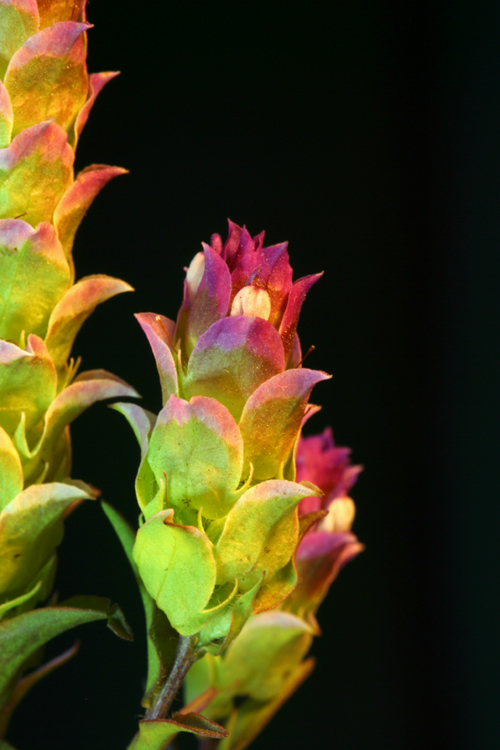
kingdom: Plantae
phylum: Tracheophyta
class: Magnoliopsida
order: Lamiales
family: Orobanchaceae
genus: Orthocarpus
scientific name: Orthocarpus cuspidatus
